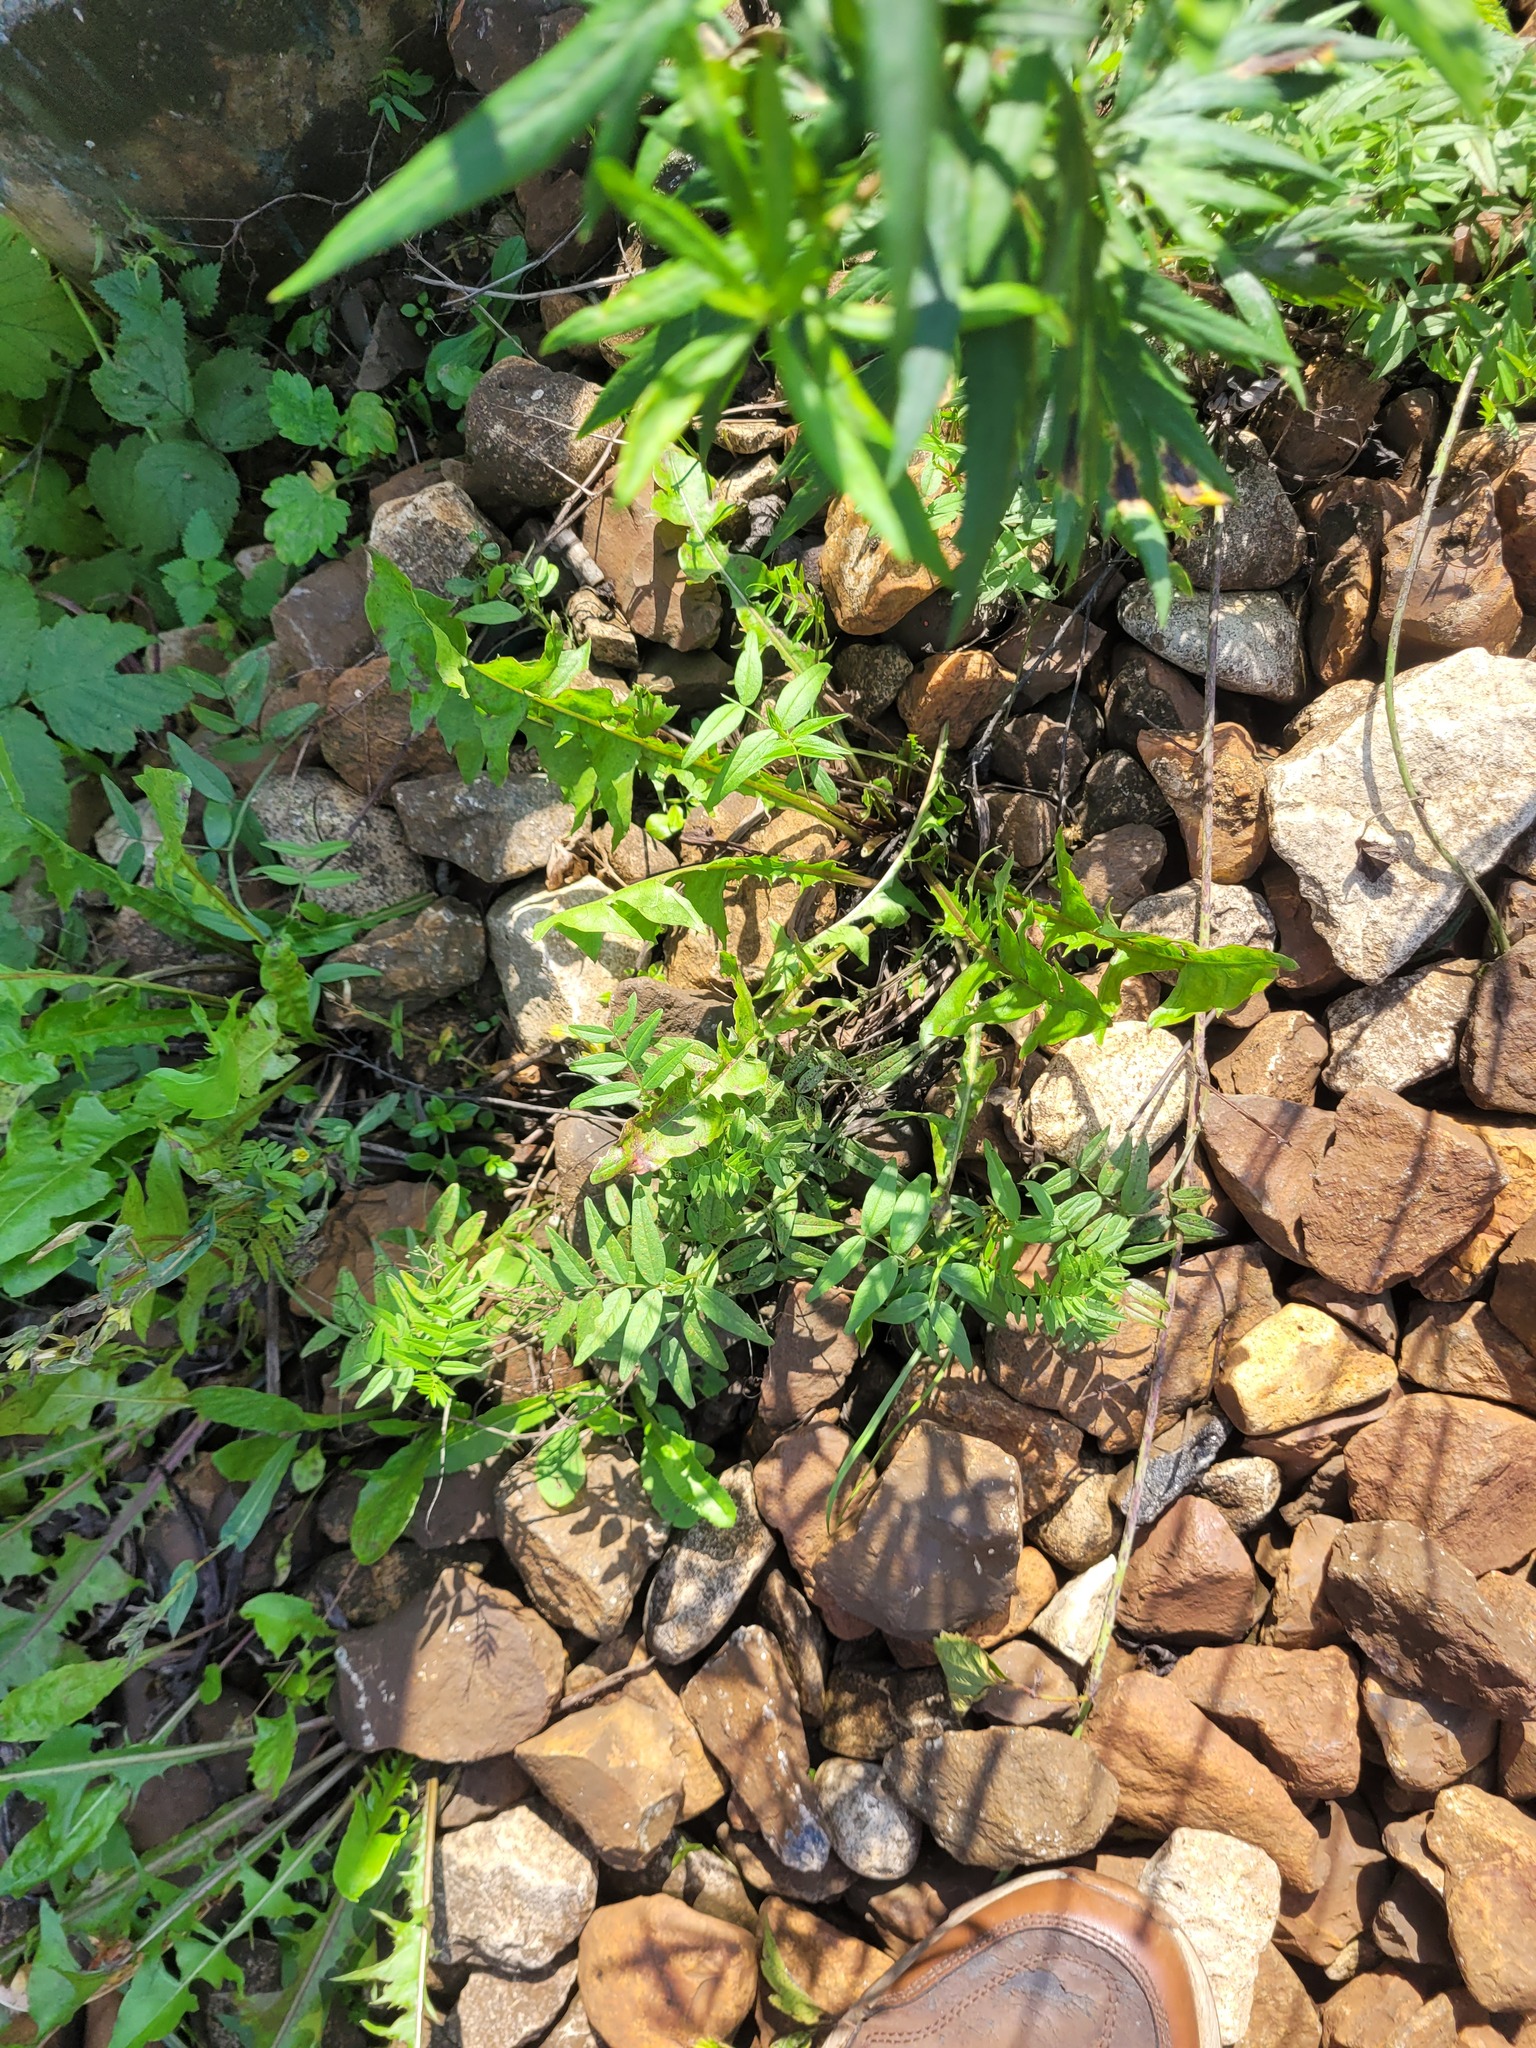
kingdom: Plantae
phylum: Tracheophyta
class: Magnoliopsida
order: Fabales
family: Fabaceae
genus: Vicia
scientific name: Vicia sepium
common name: Bush vetch
